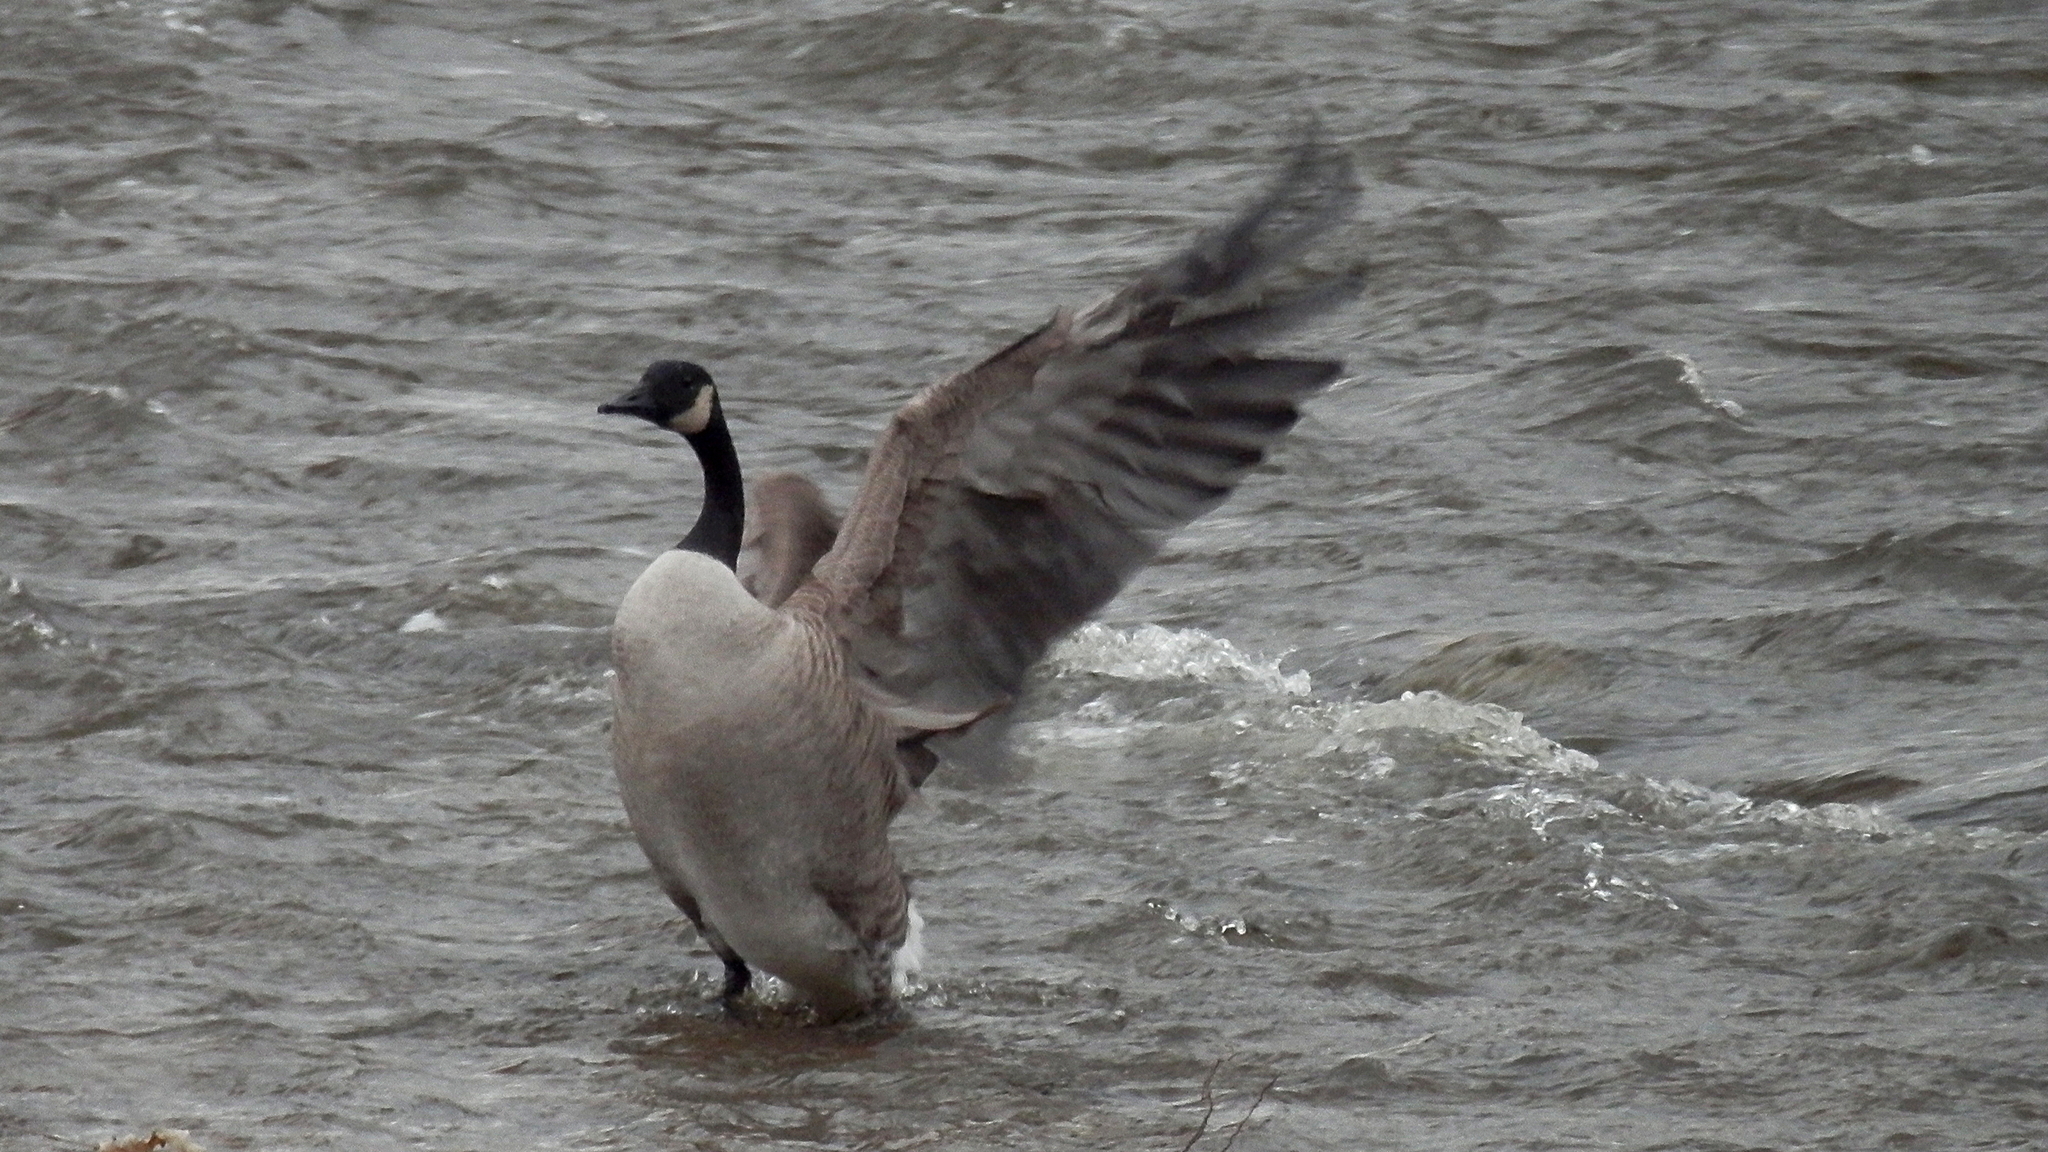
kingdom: Animalia
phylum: Chordata
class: Aves
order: Anseriformes
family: Anatidae
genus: Branta
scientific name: Branta canadensis
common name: Canada goose
